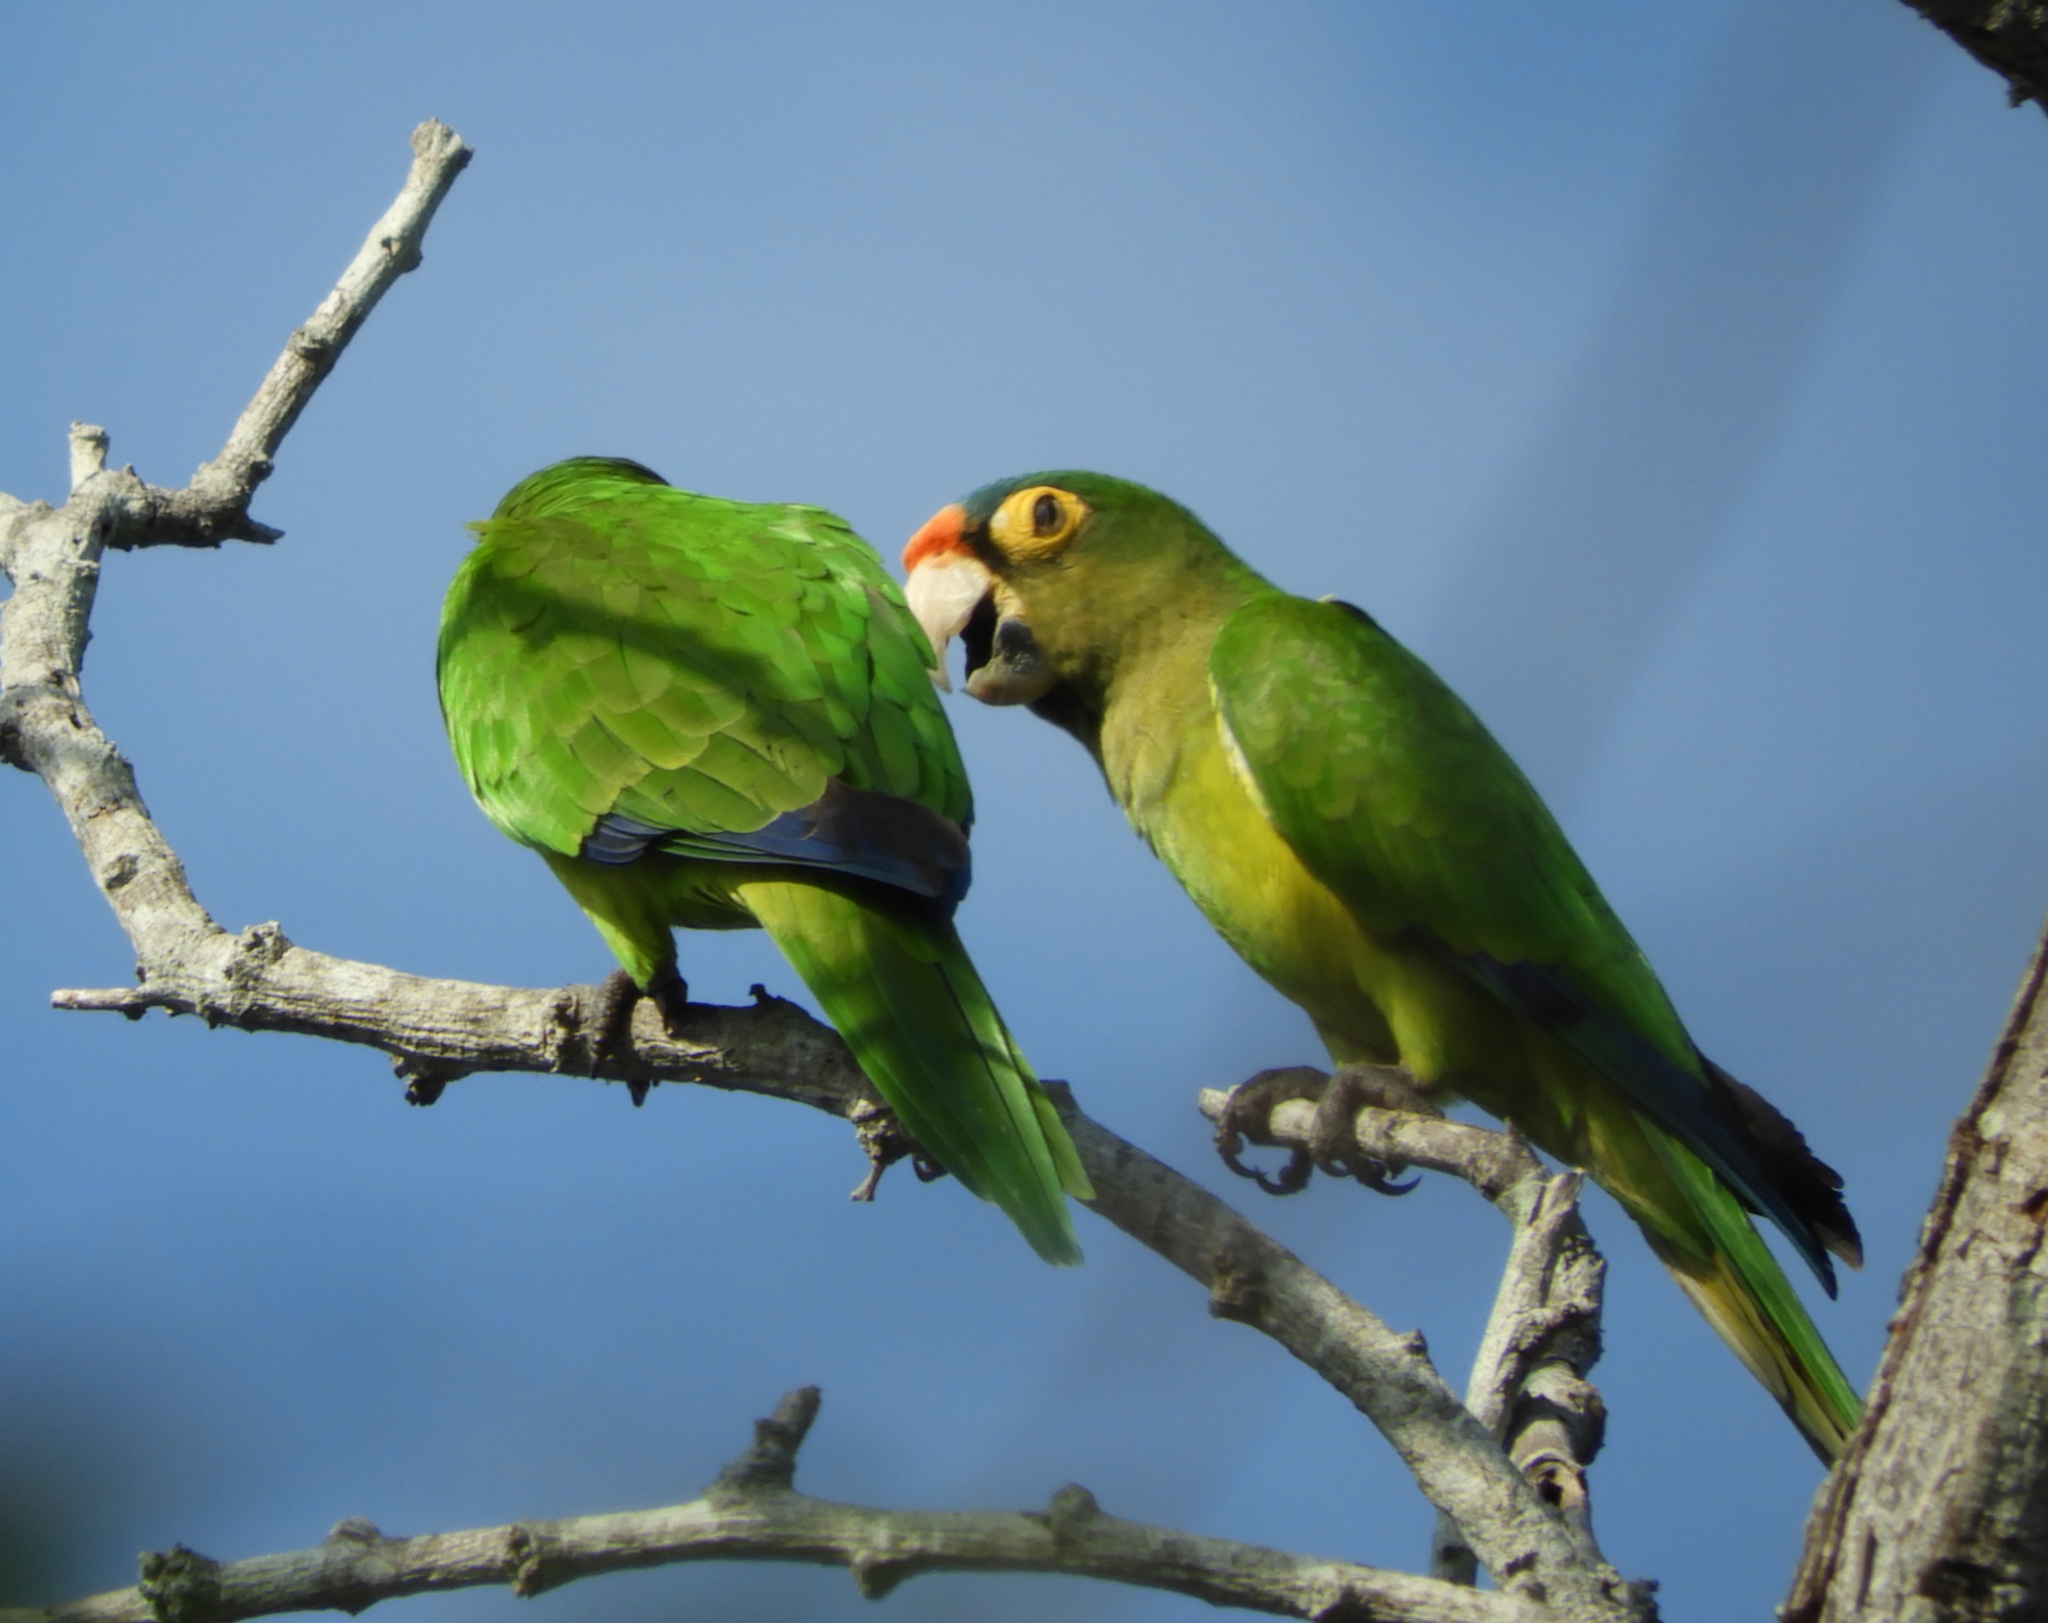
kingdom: Animalia
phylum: Chordata
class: Aves
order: Psittaciformes
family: Psittacidae
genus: Aratinga
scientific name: Aratinga canicularis
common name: Orange-fronted parakeet
